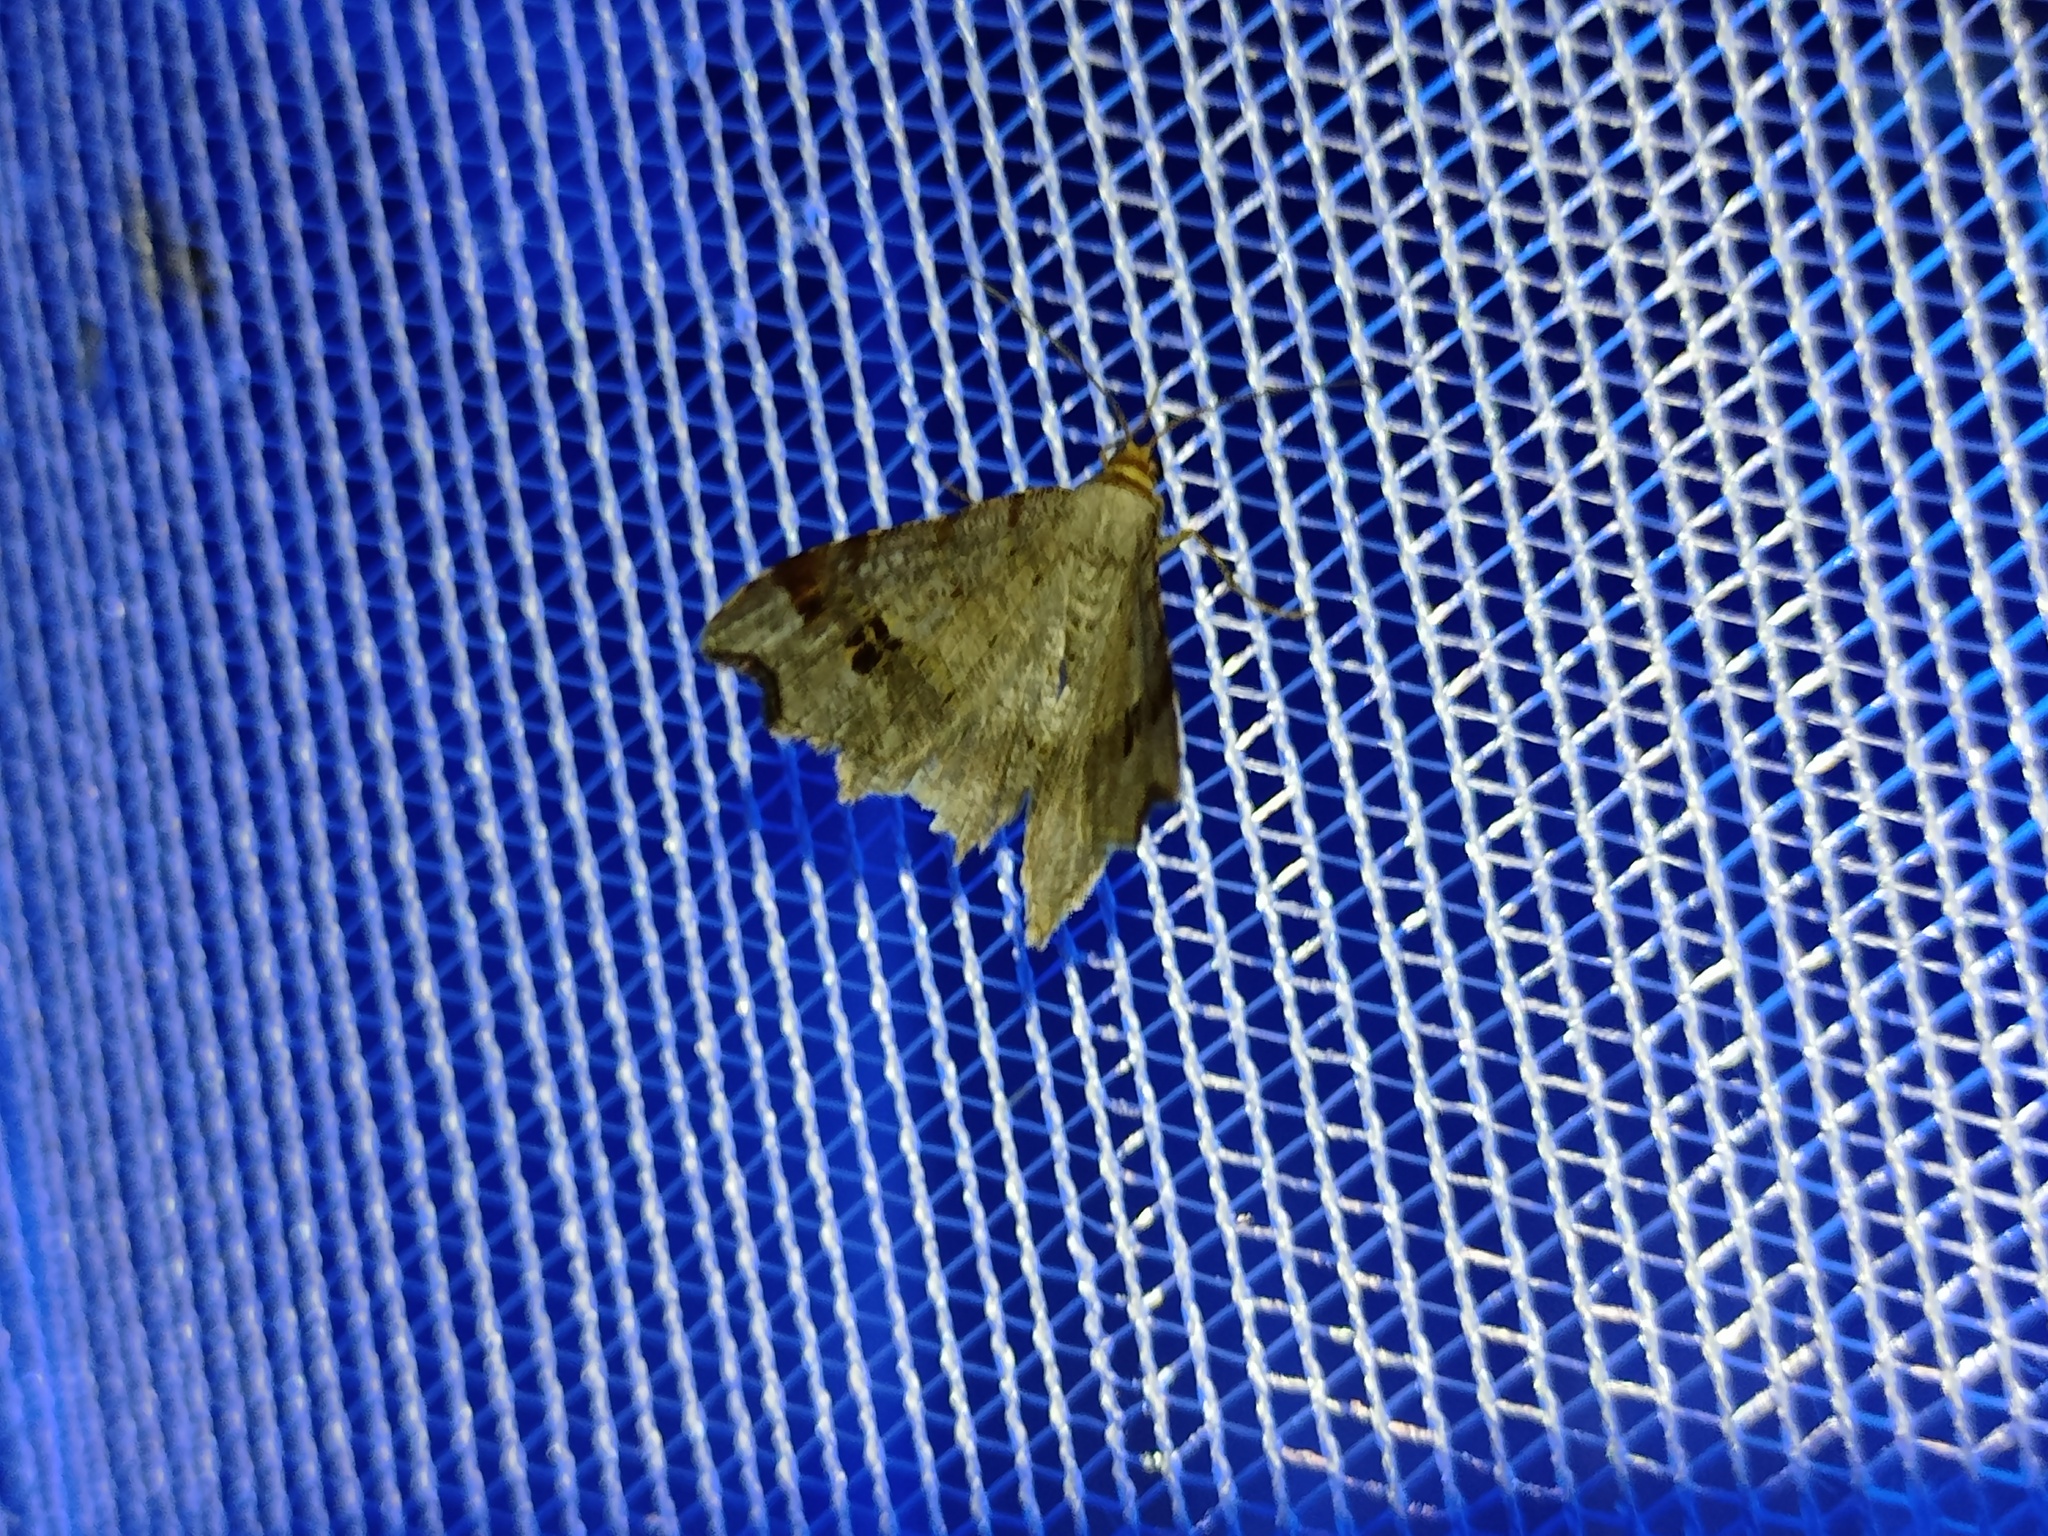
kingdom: Animalia
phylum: Arthropoda
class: Insecta
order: Lepidoptera
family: Geometridae
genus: Macaria
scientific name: Macaria alternata
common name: Sharp-angled peacock
